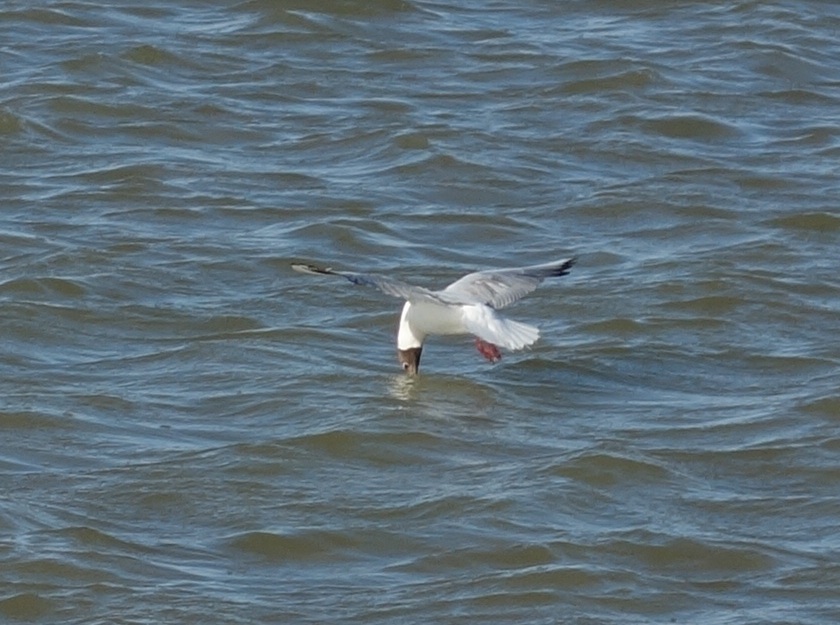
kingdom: Animalia
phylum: Chordata
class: Aves
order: Charadriiformes
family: Laridae
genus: Chroicocephalus
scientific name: Chroicocephalus ridibundus
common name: Black-headed gull
